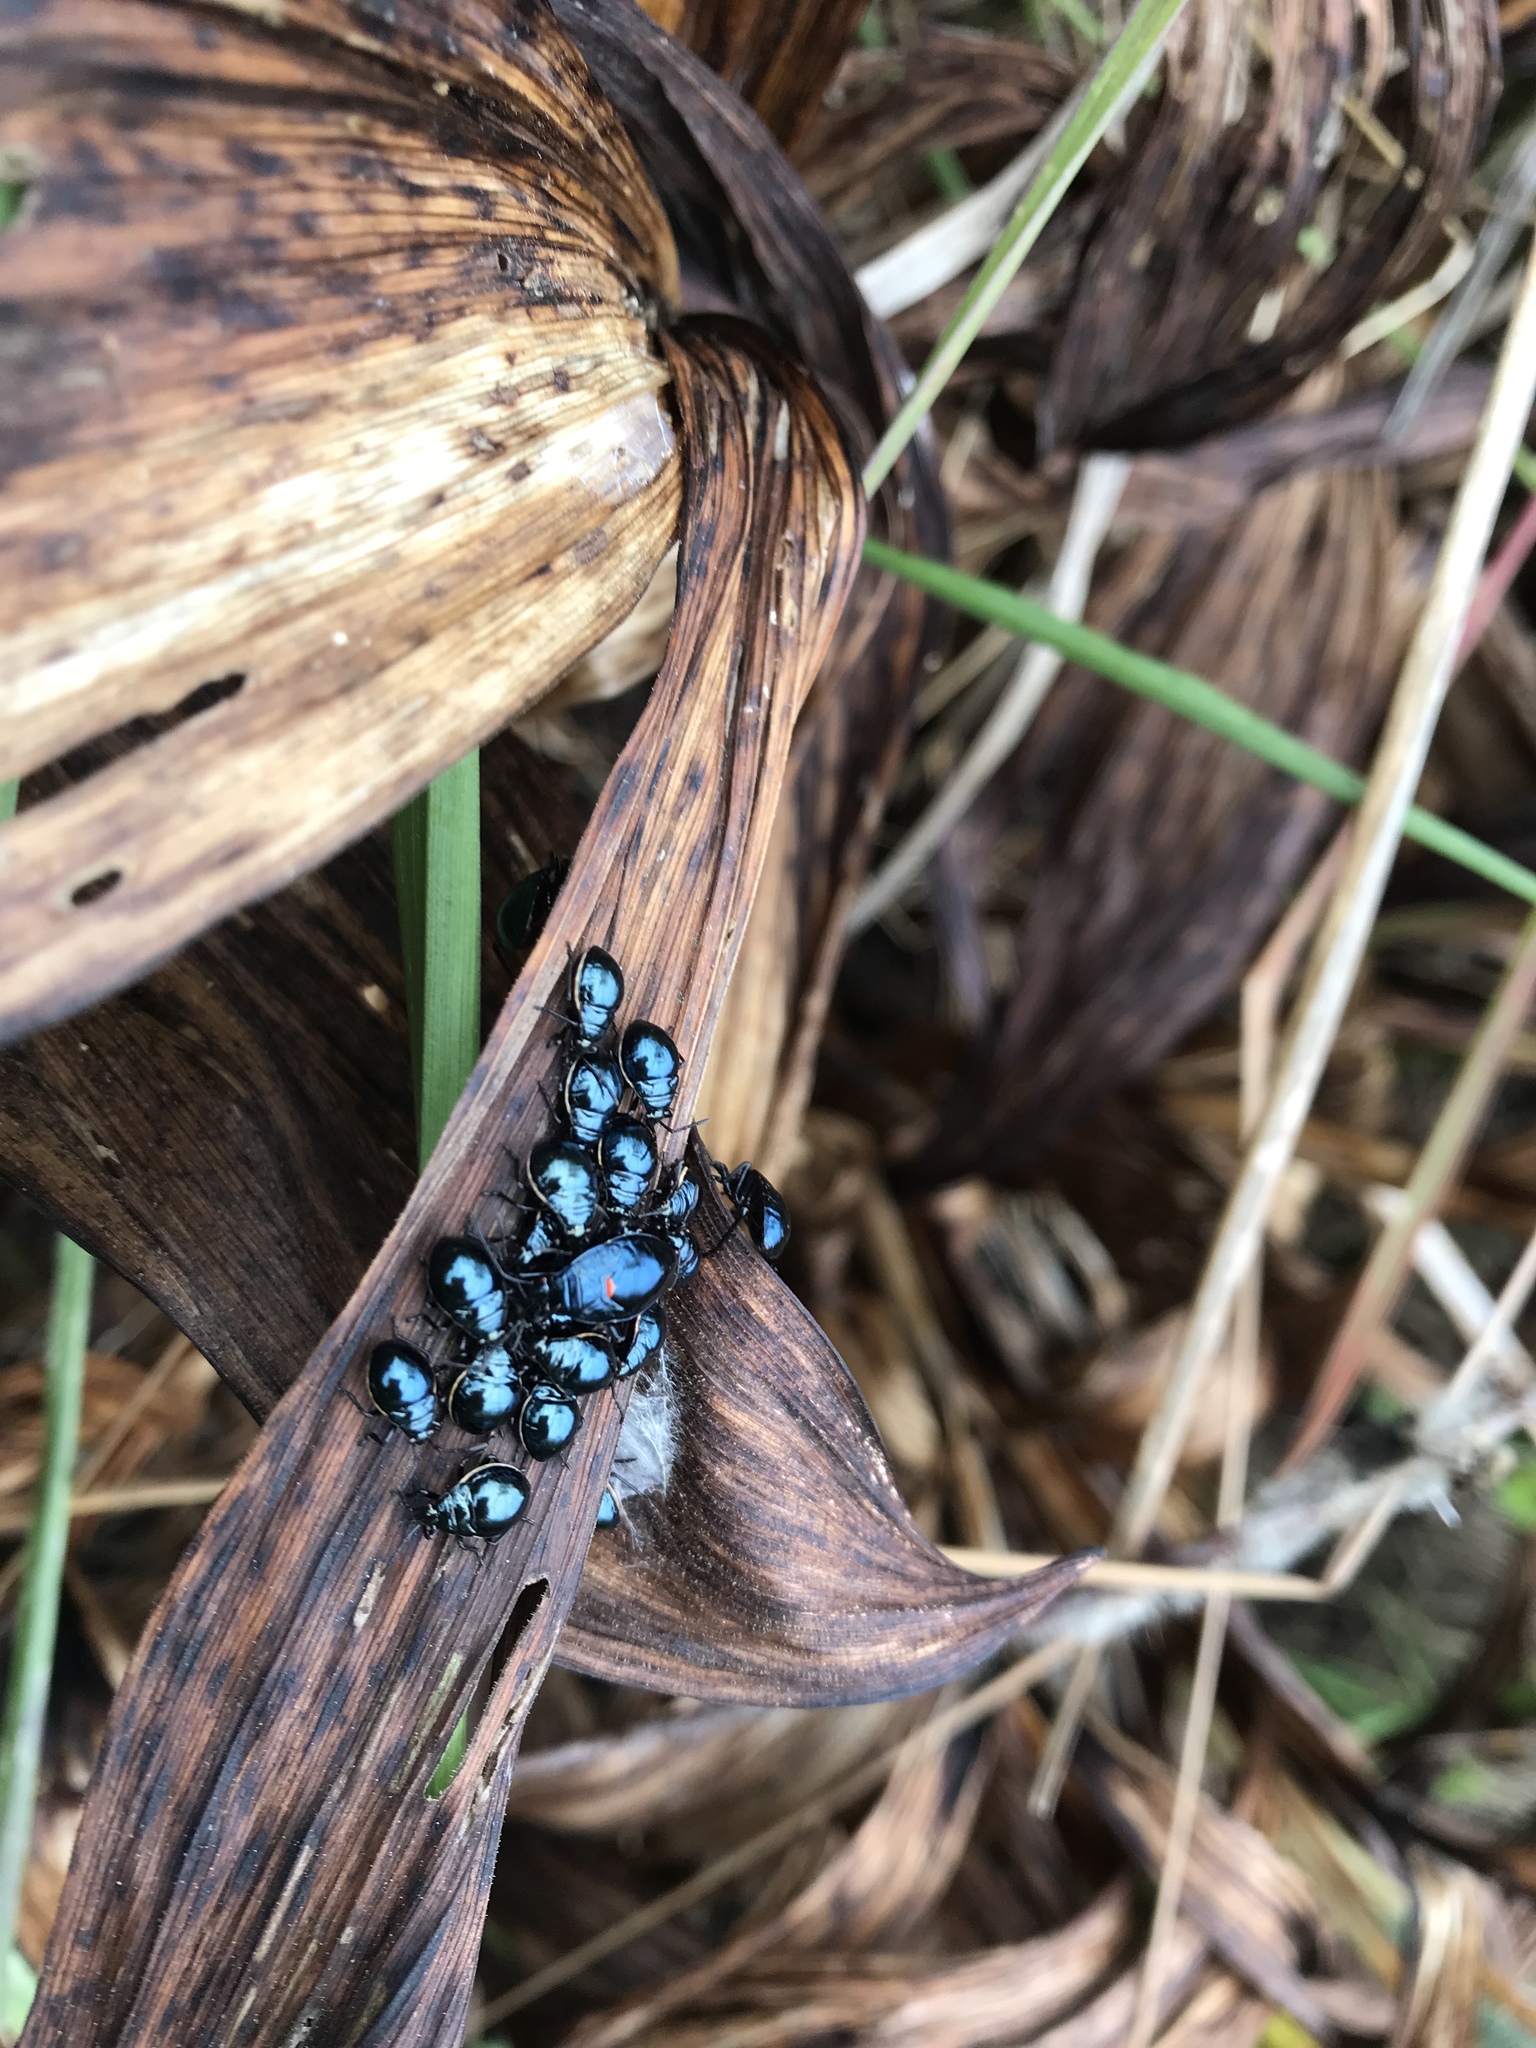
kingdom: Animalia
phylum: Arthropoda
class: Insecta
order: Hemiptera
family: Largidae
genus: Largus
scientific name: Largus californicus
